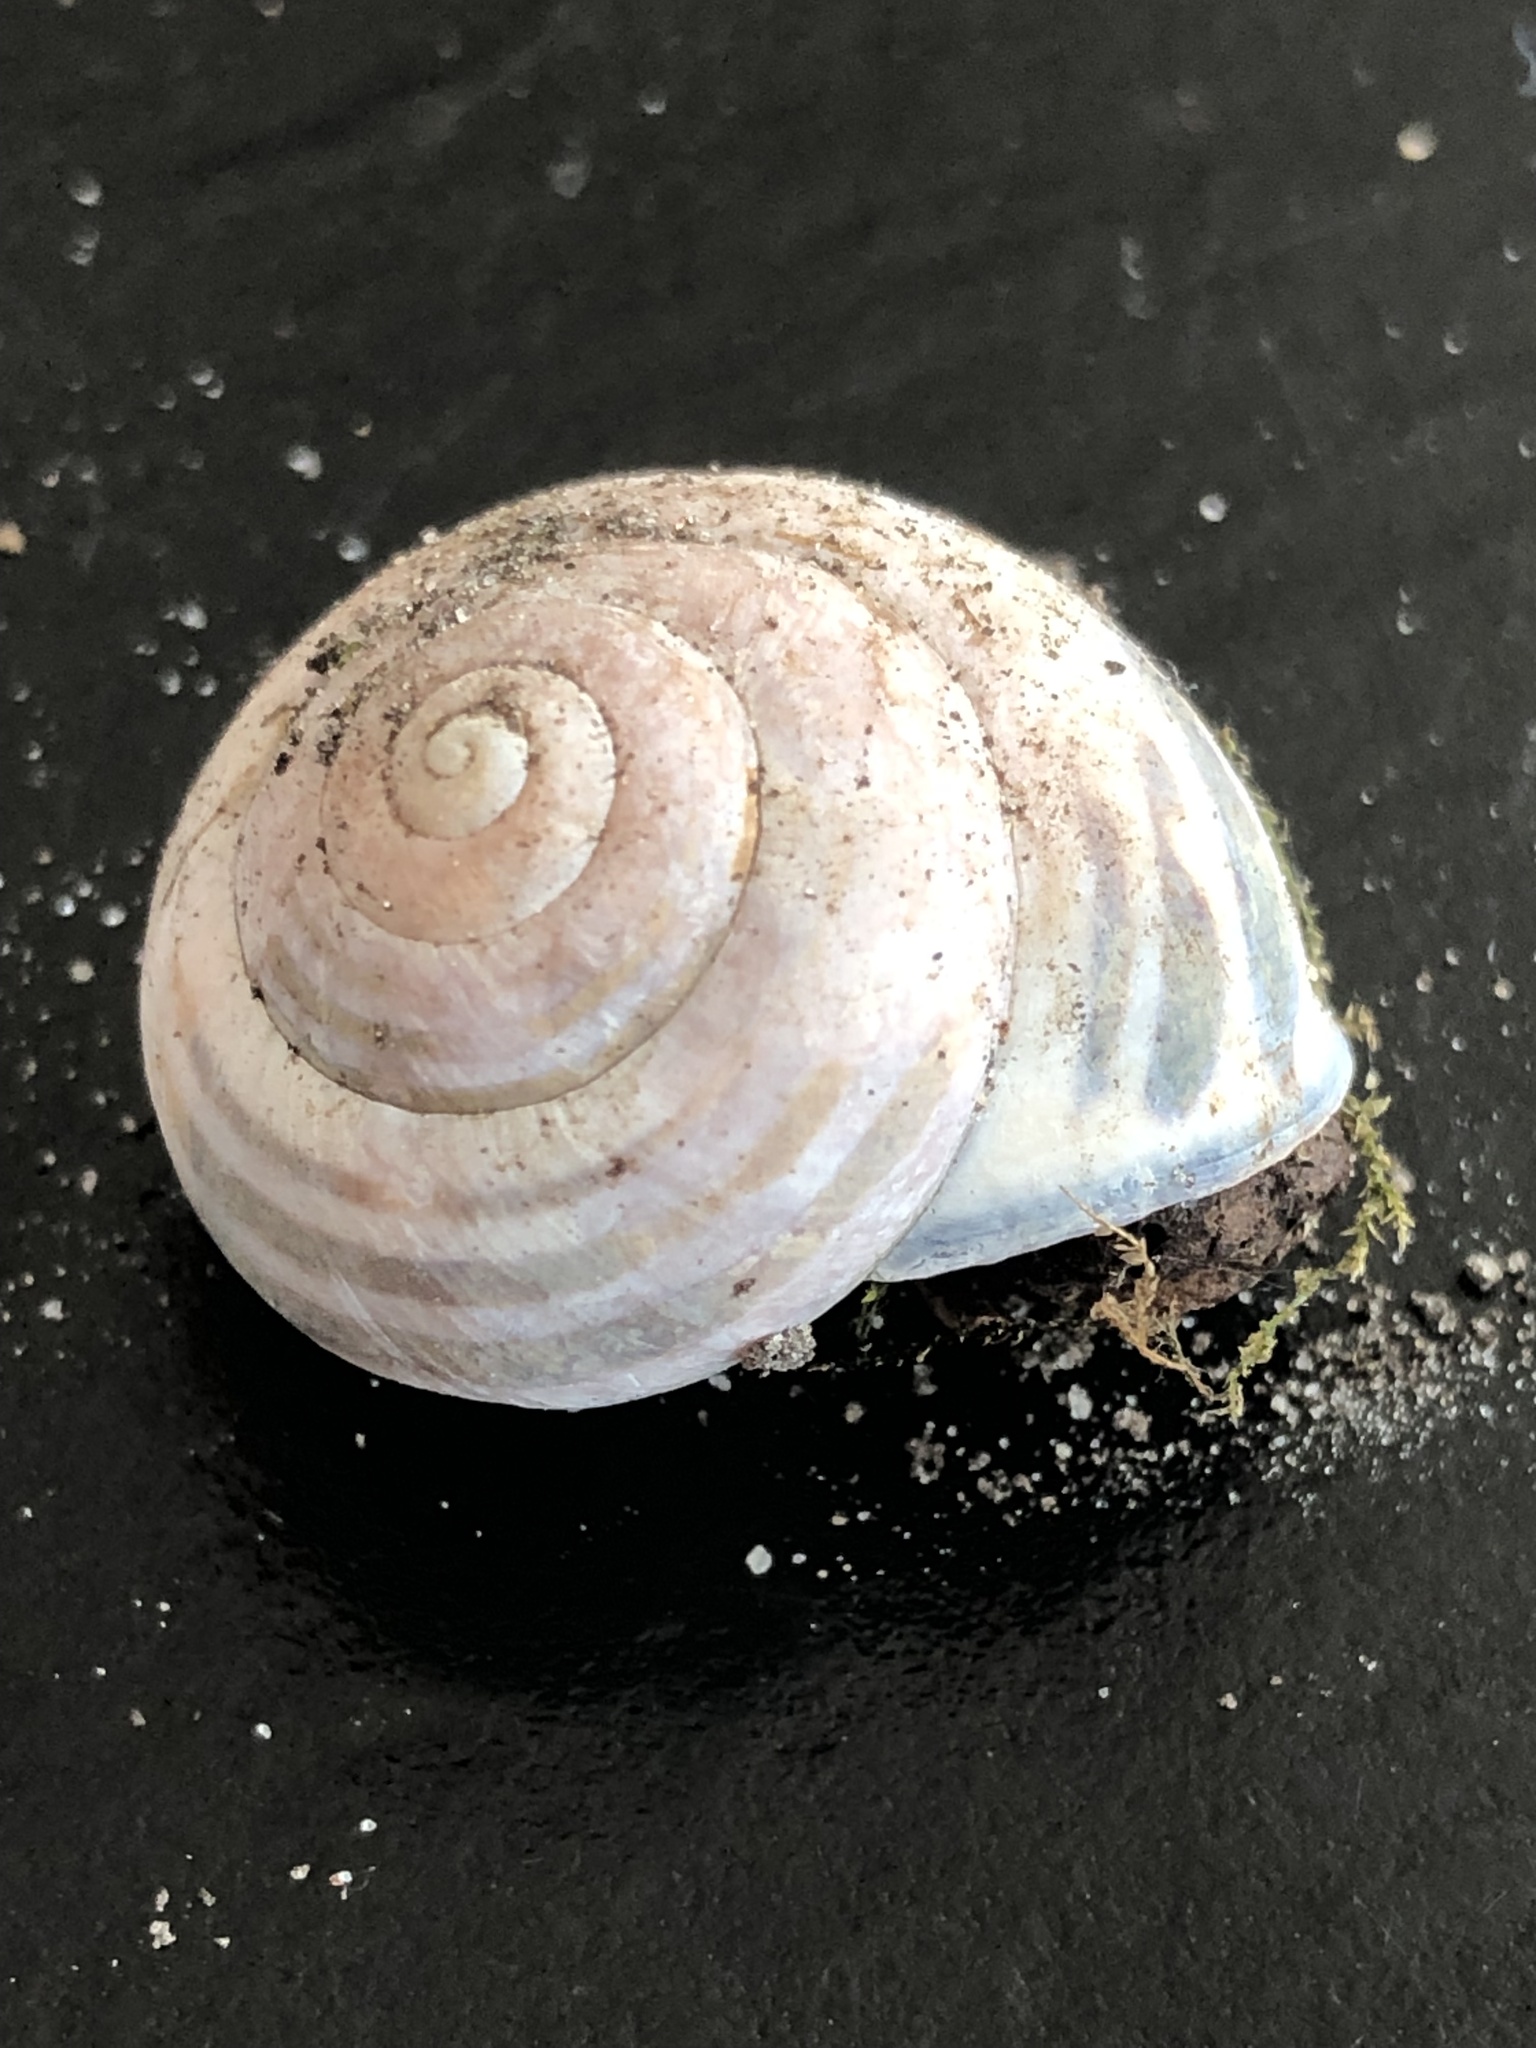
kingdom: Animalia
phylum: Mollusca
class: Gastropoda
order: Stylommatophora
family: Helicidae
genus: Cepaea
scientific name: Cepaea nemoralis
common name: Grovesnail
